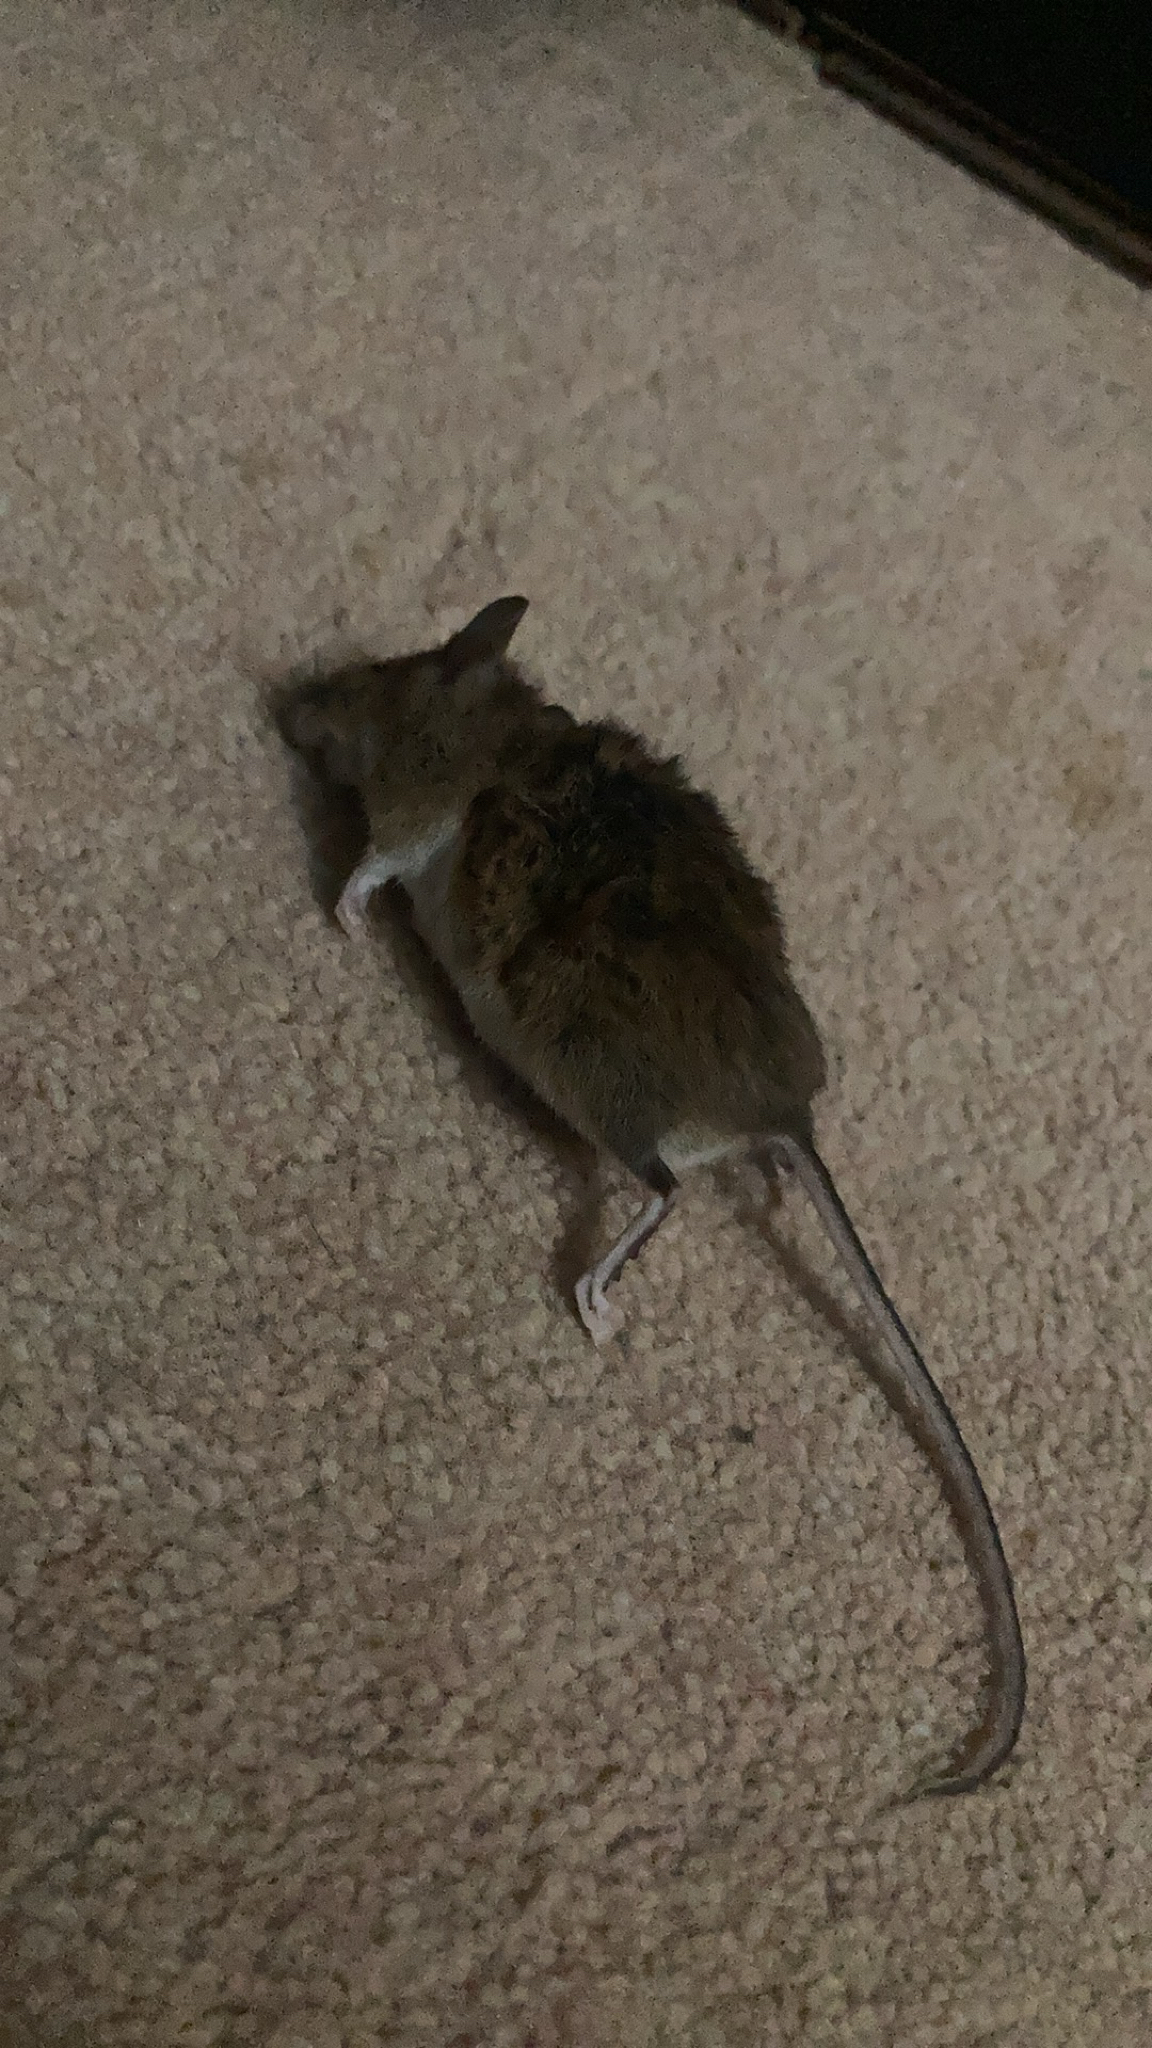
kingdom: Animalia
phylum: Chordata
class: Mammalia
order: Rodentia
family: Muridae
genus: Mus
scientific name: Mus musculus
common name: House mouse
